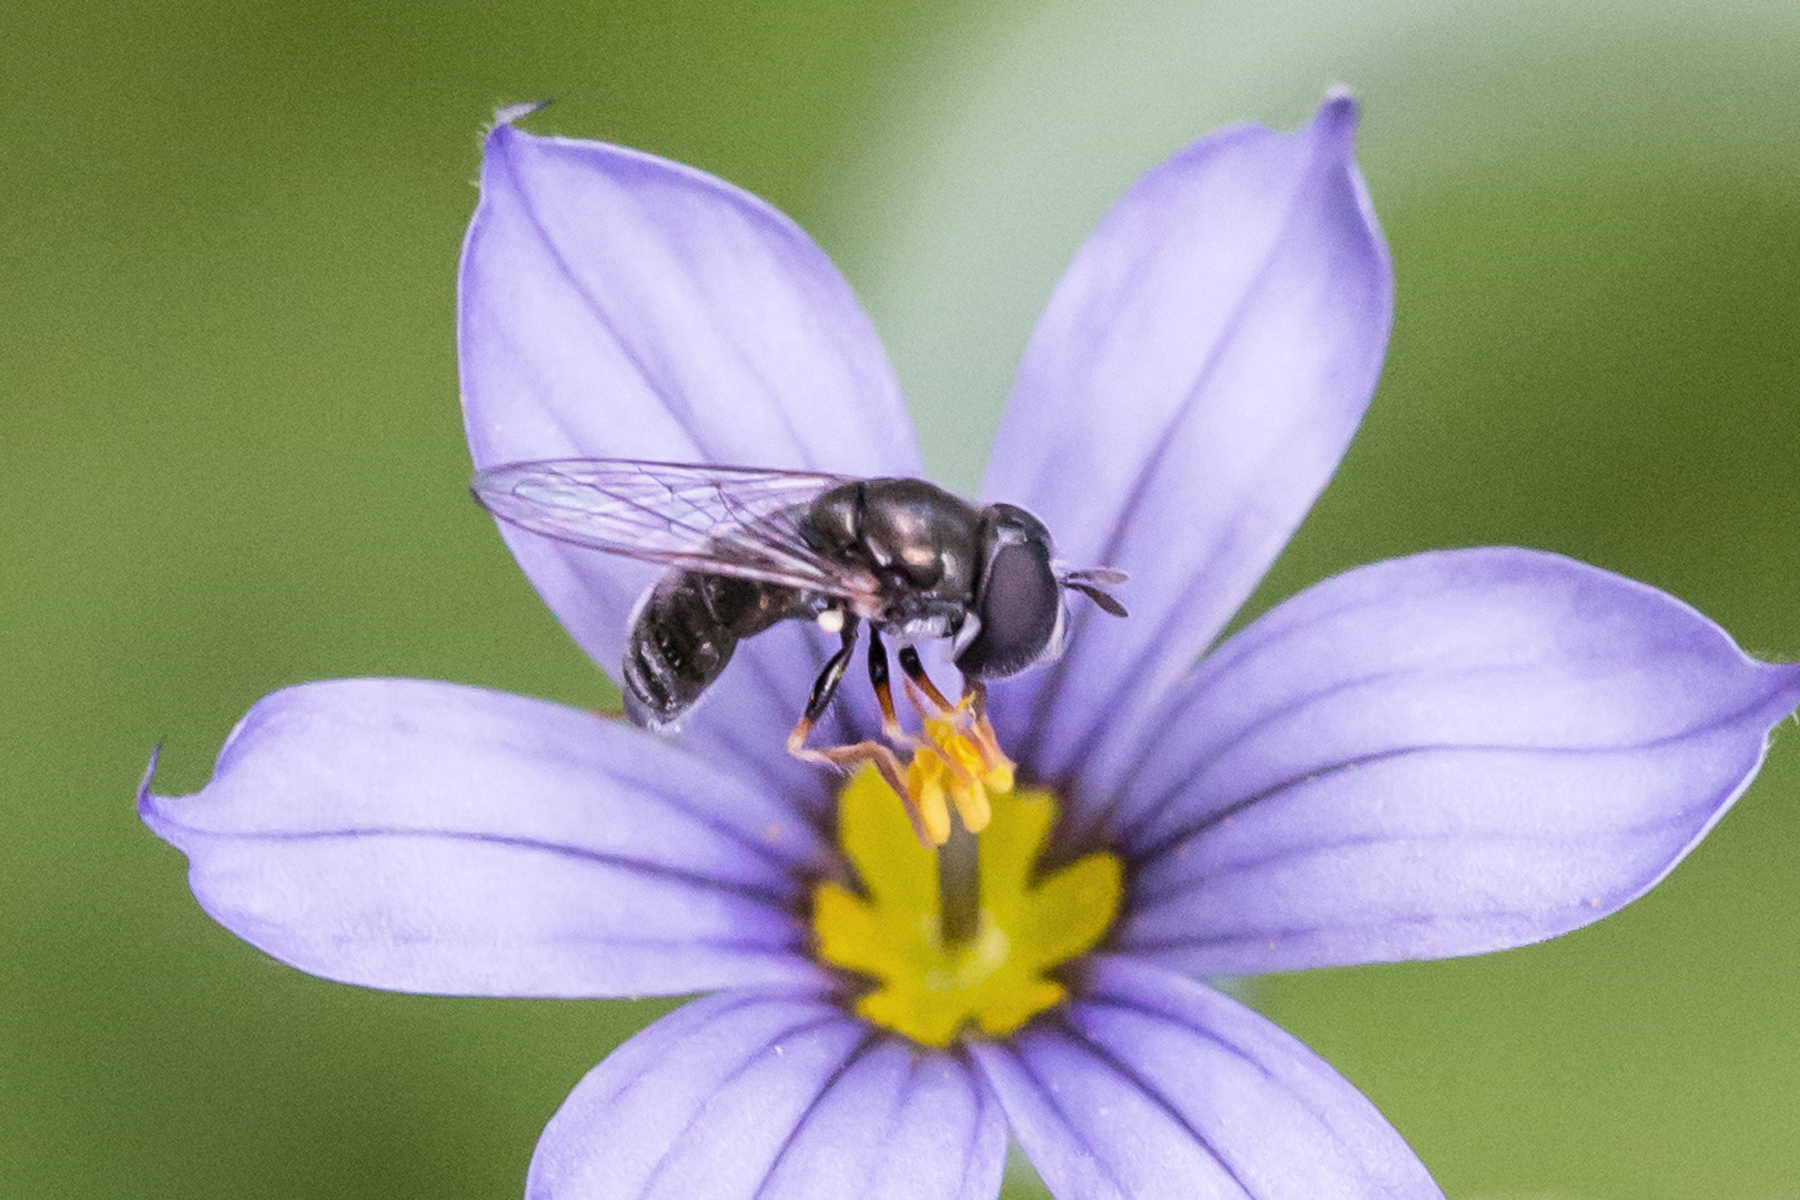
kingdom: Animalia
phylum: Arthropoda
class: Insecta
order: Diptera
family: Syrphidae
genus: Paragus
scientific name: Paragus haemorrhous
